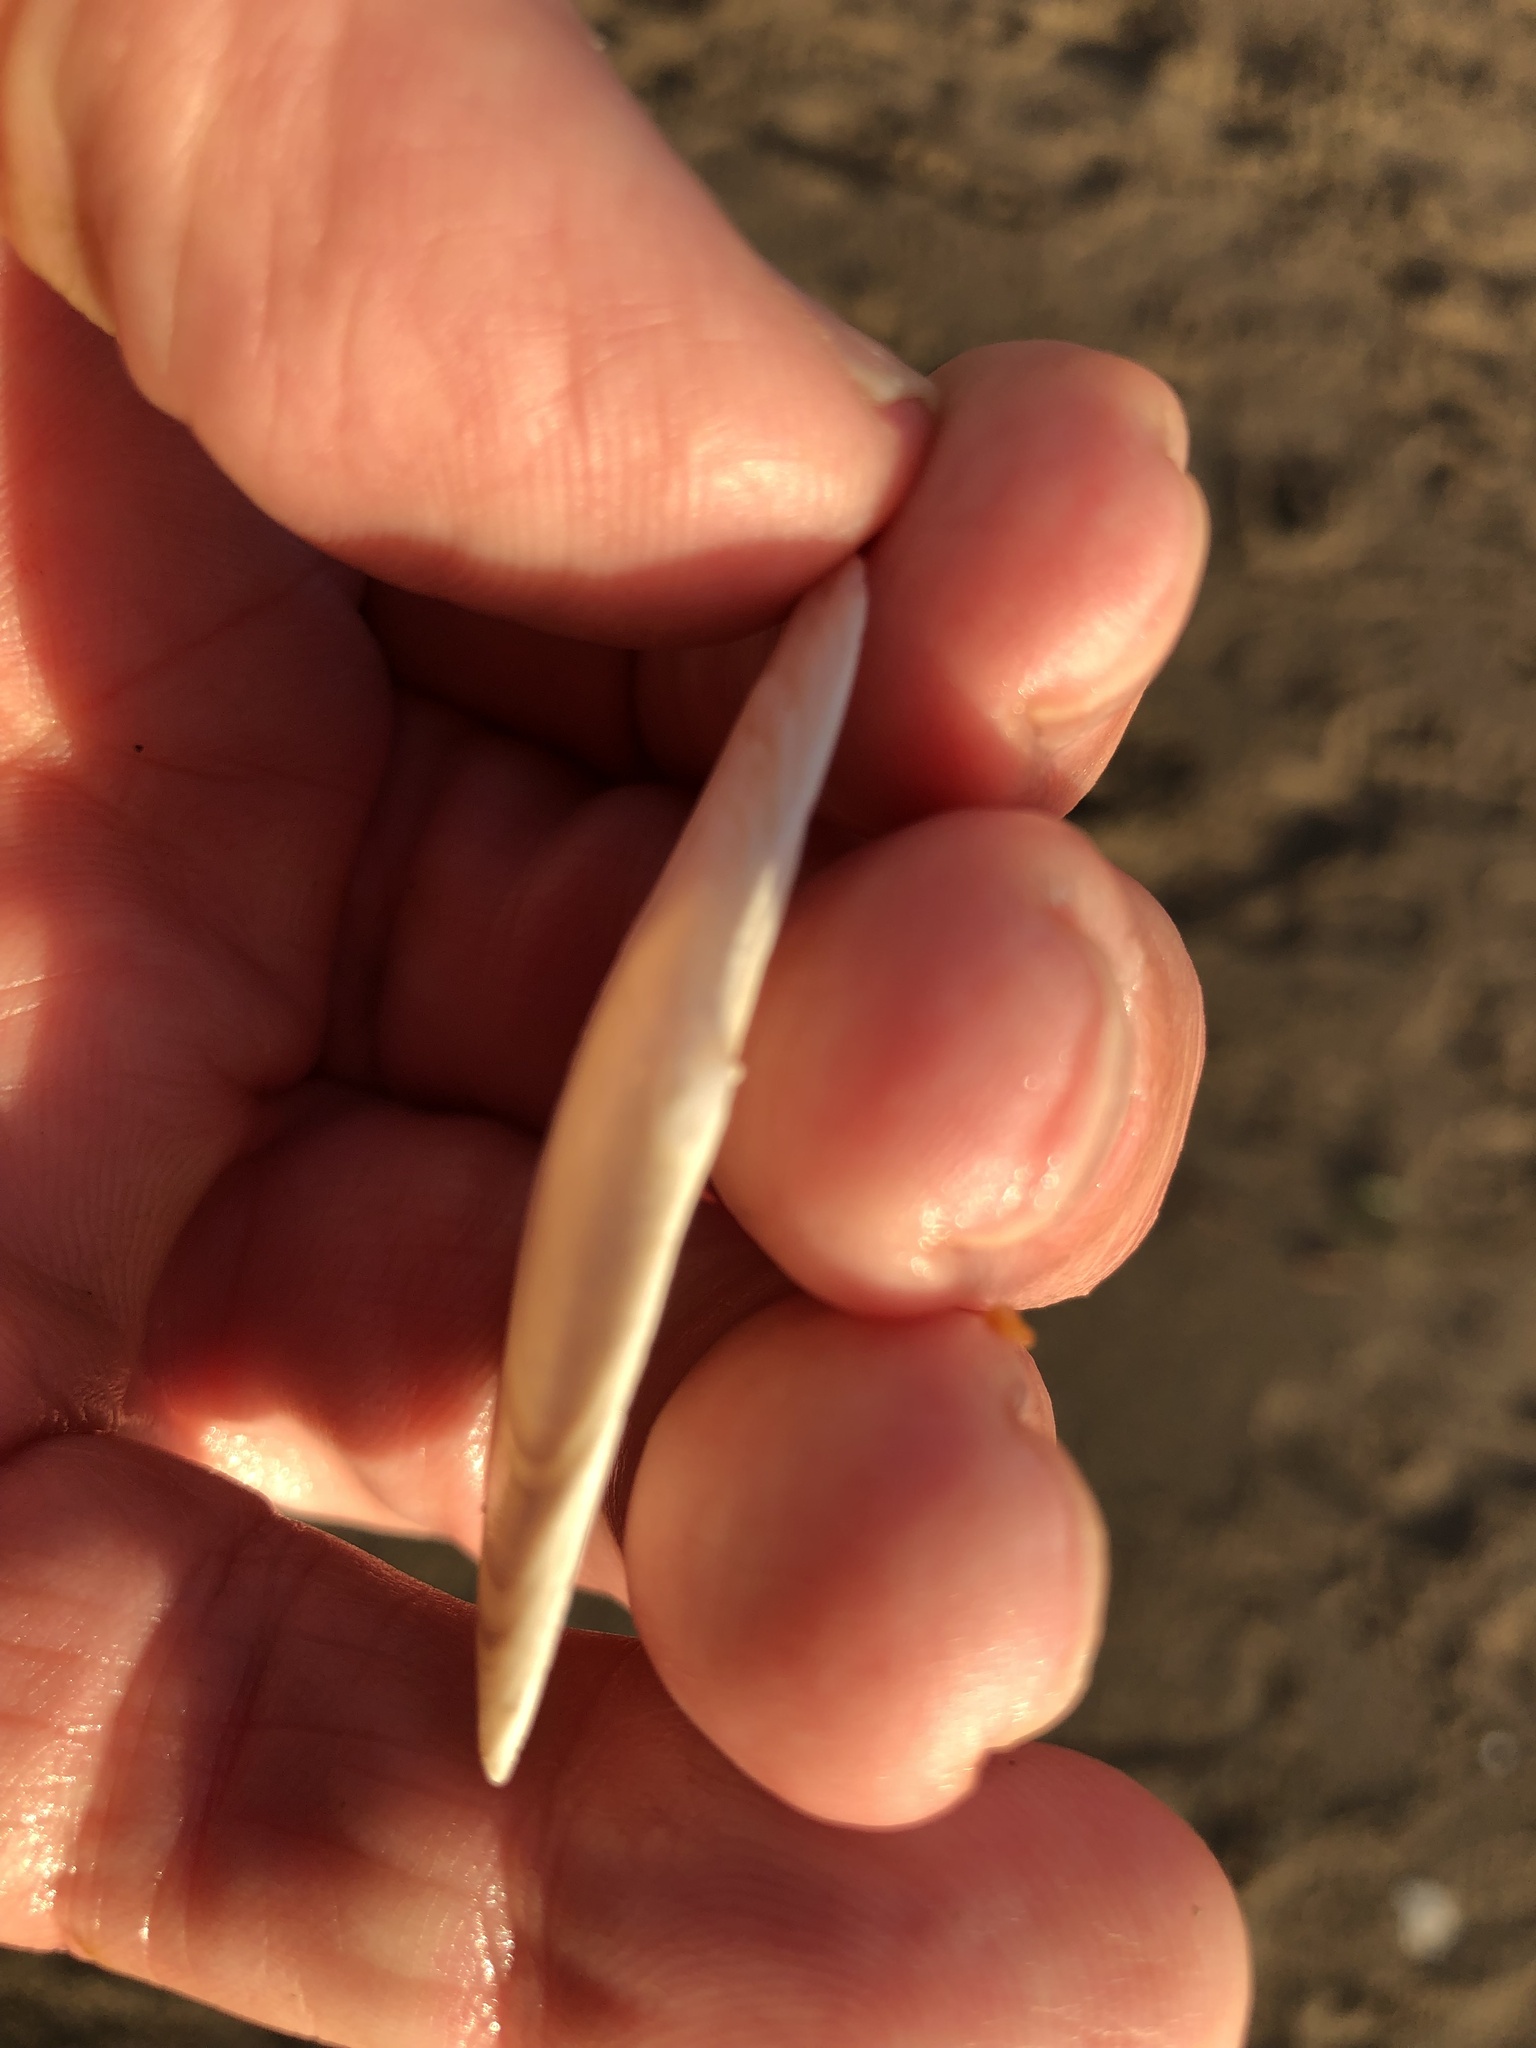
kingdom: Animalia
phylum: Mollusca
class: Bivalvia
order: Cardiida
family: Tellinidae
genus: Megangulus
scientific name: Megangulus bodegensis
